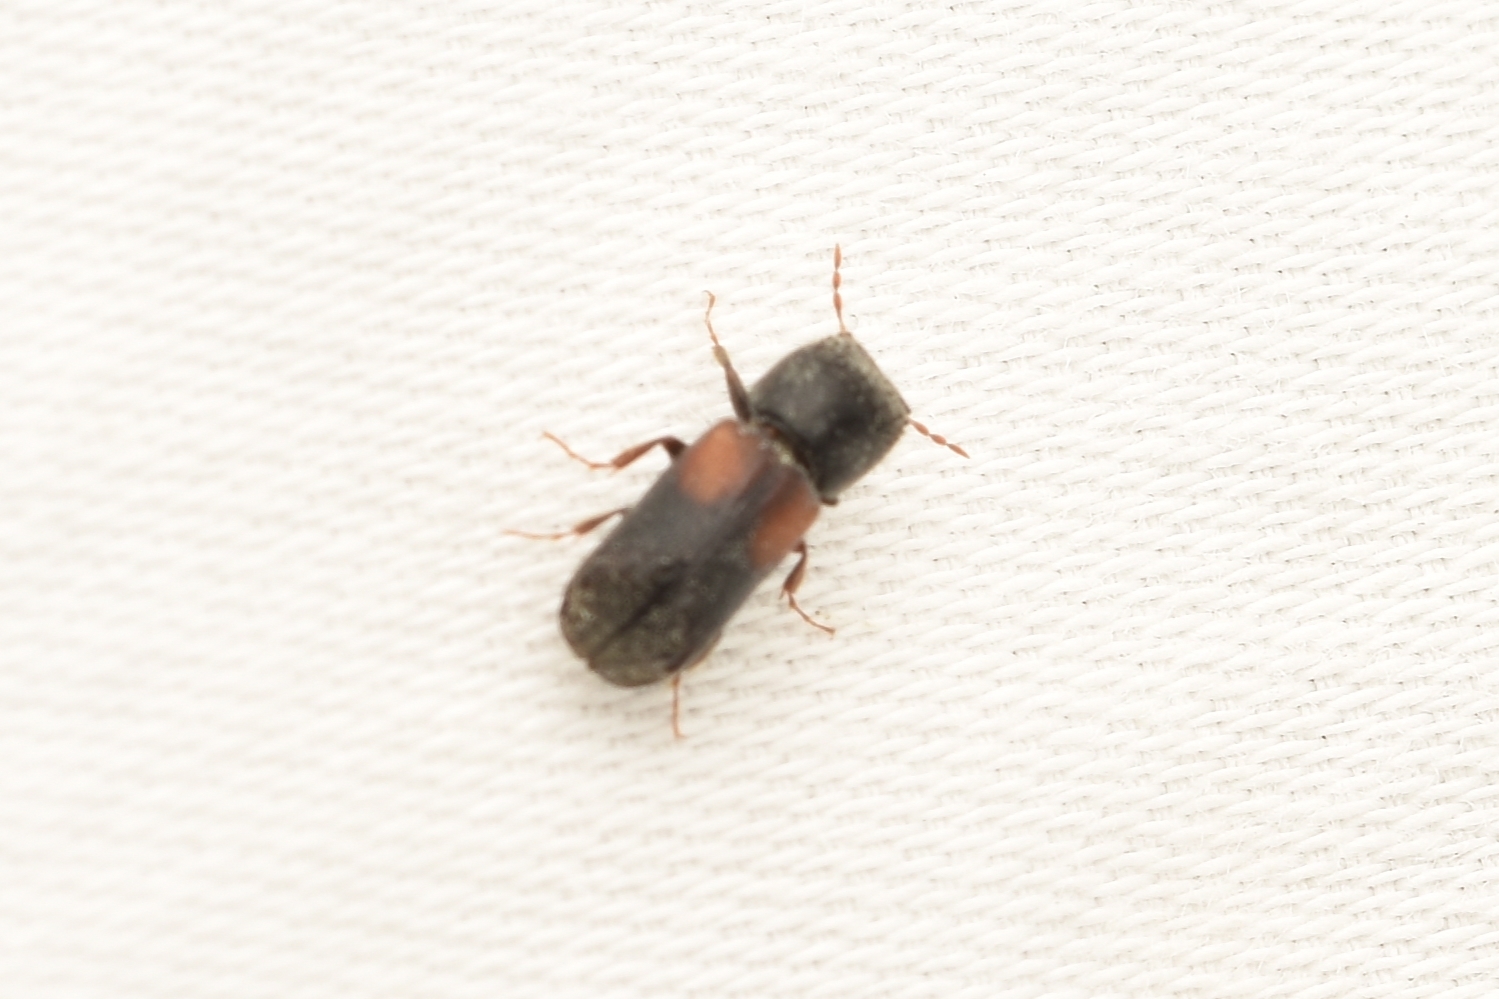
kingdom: Animalia
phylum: Arthropoda
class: Insecta
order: Coleoptera
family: Bostrichidae
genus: Xylobiops
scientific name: Xylobiops basilaris
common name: Red-shouldered bostrichid
